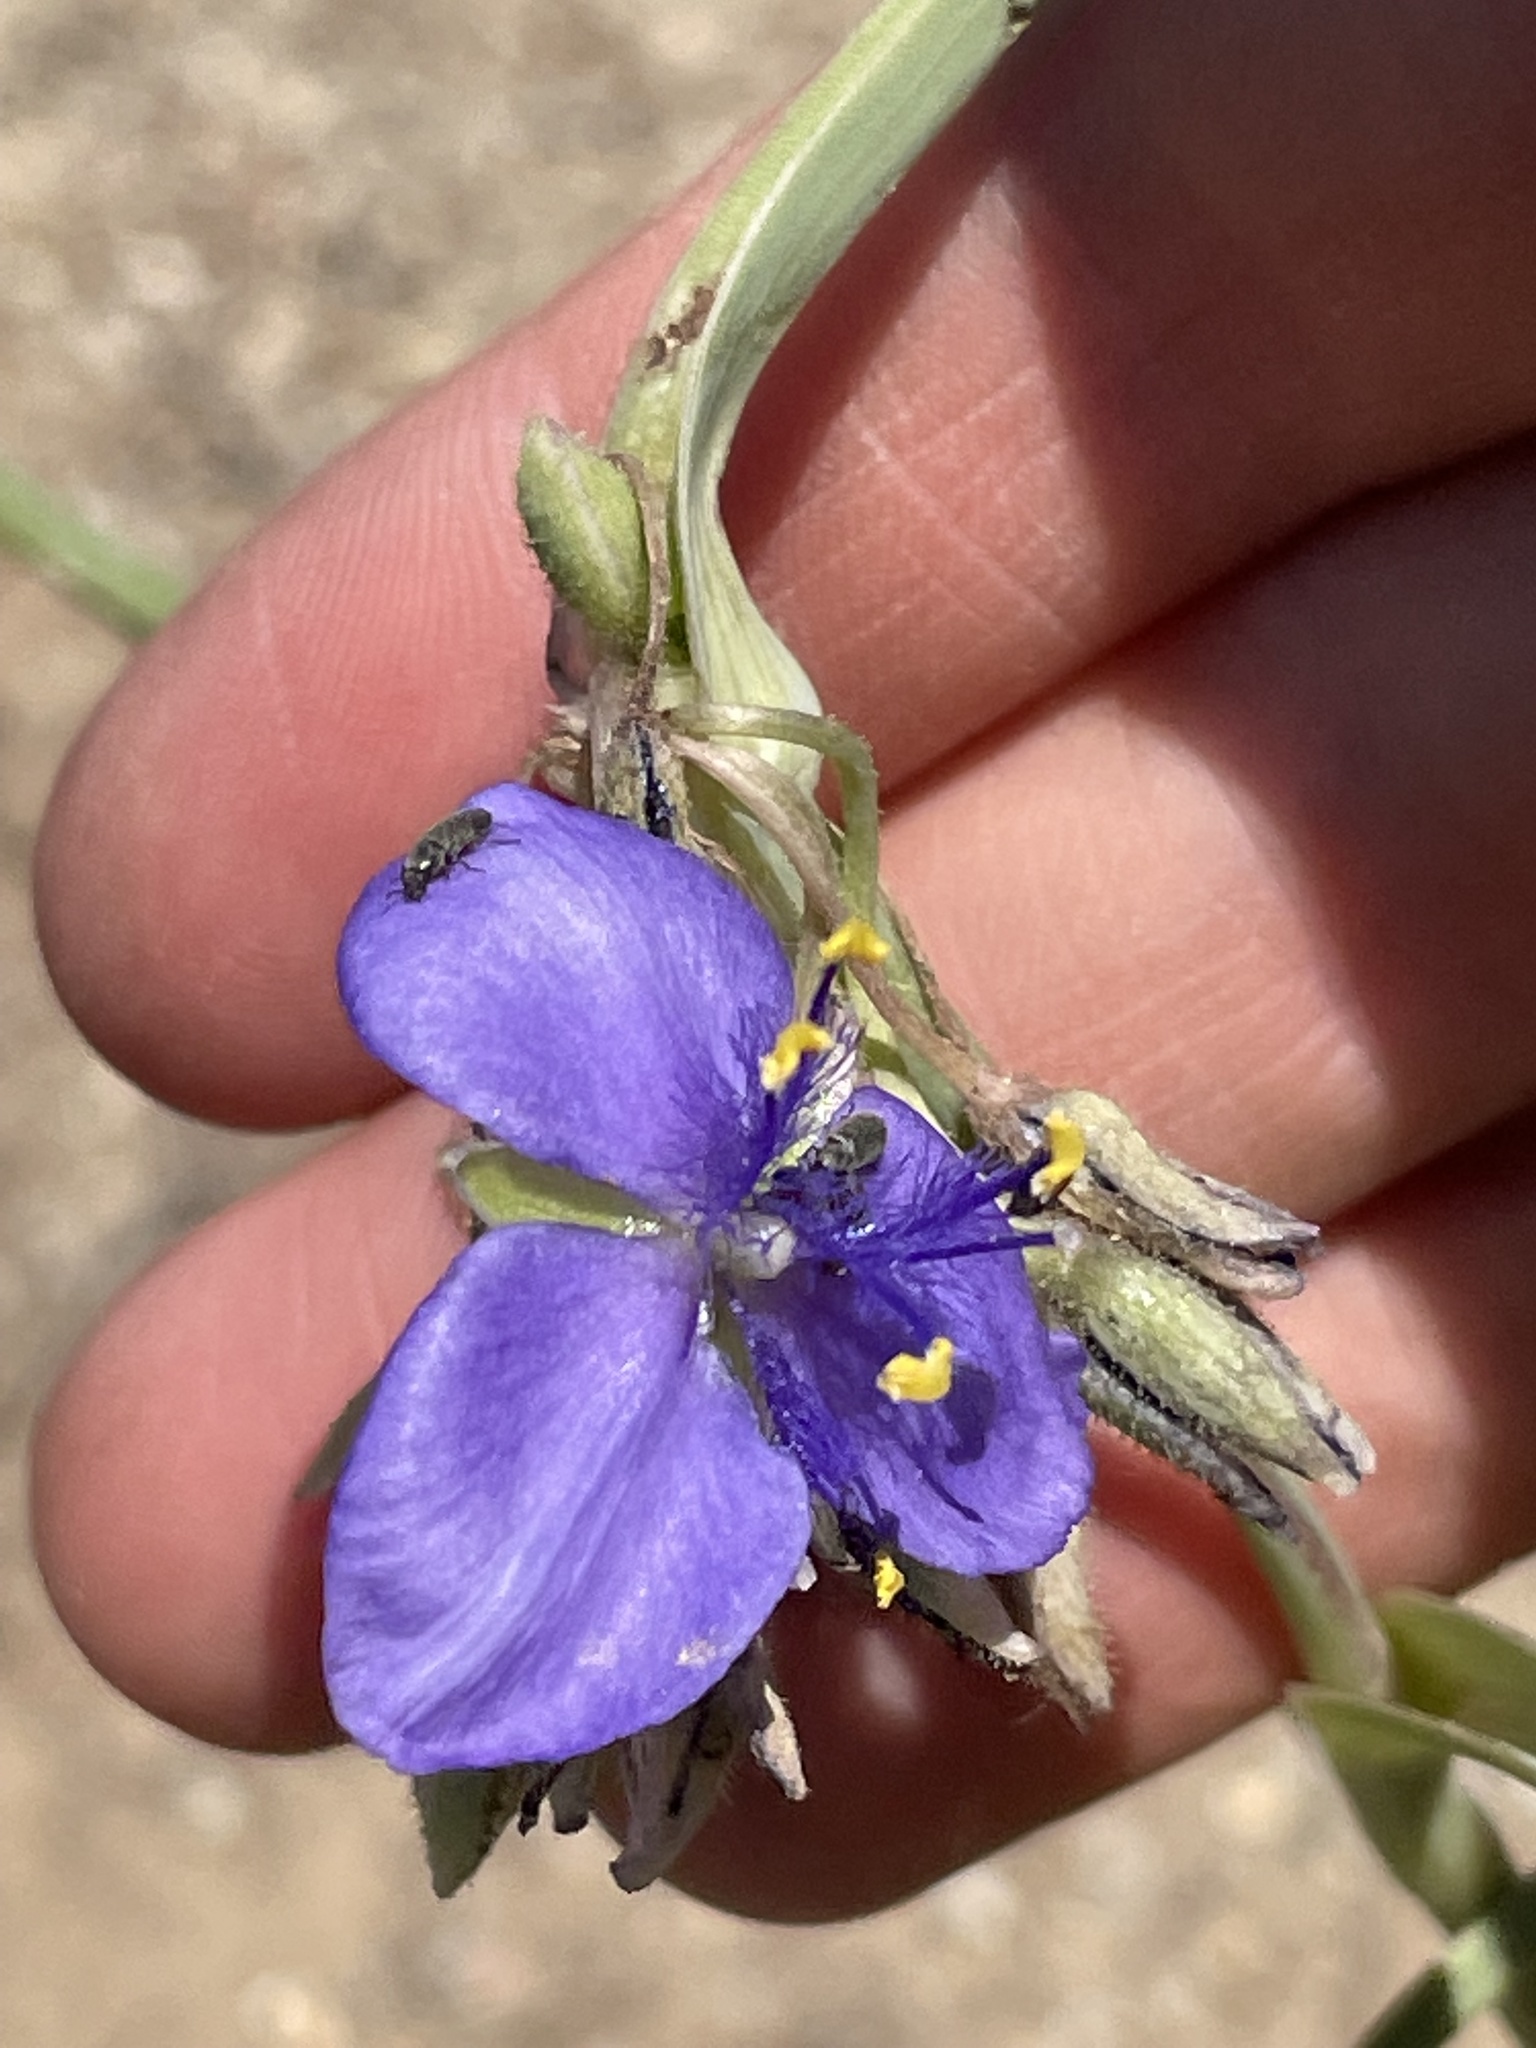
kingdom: Plantae
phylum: Tracheophyta
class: Liliopsida
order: Commelinales
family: Commelinaceae
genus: Tradescantia
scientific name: Tradescantia occidentalis
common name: Prairie spiderwort
